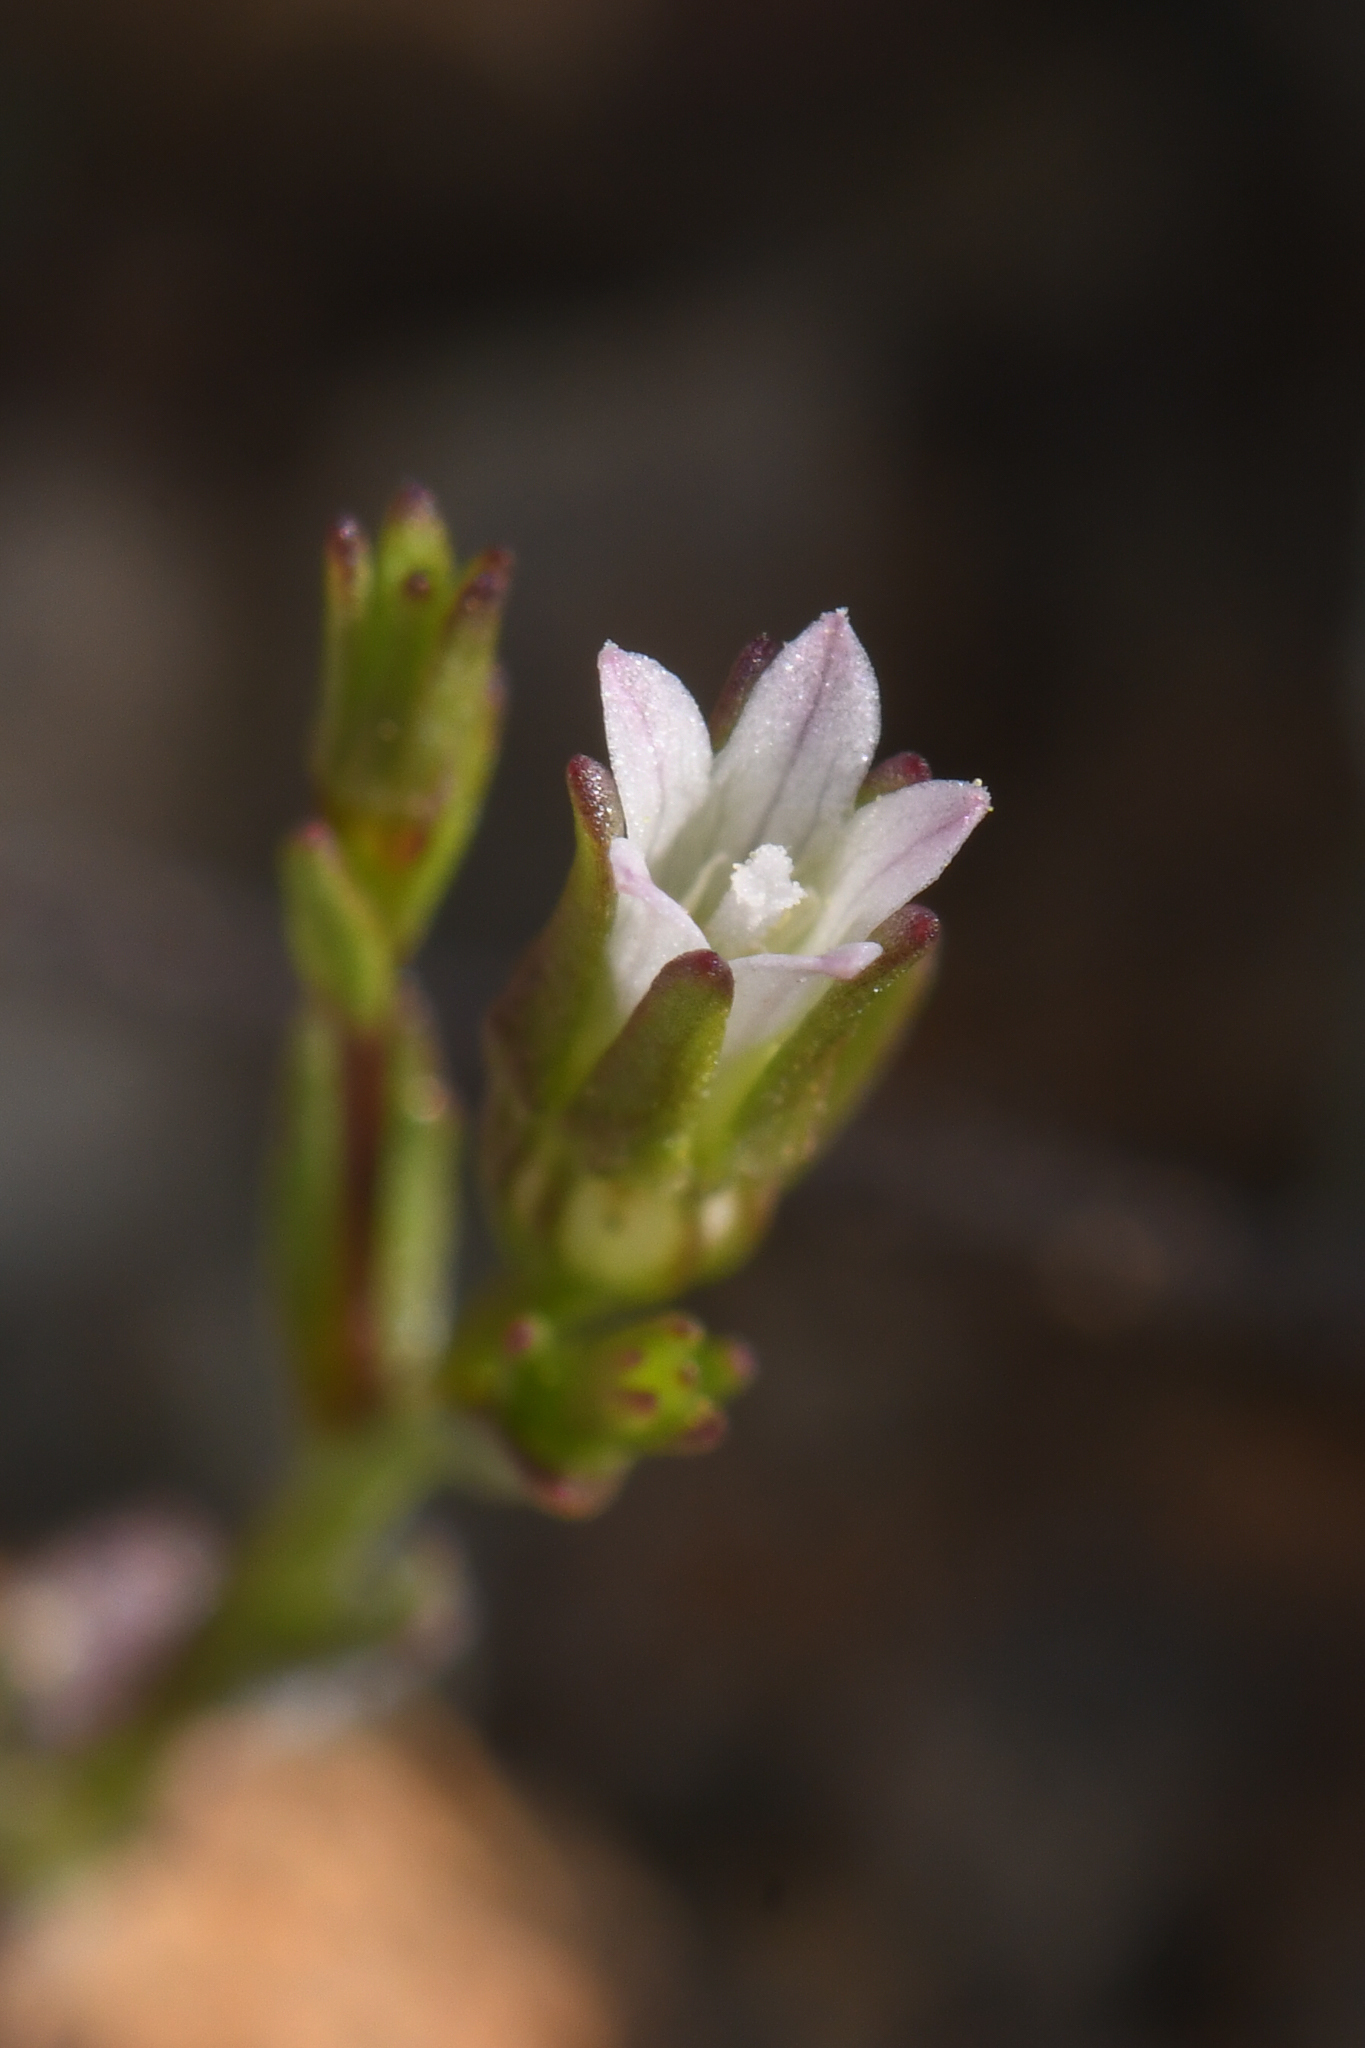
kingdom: Plantae
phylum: Tracheophyta
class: Magnoliopsida
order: Asterales
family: Campanulaceae
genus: Ravenella
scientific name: Ravenella griffinii
